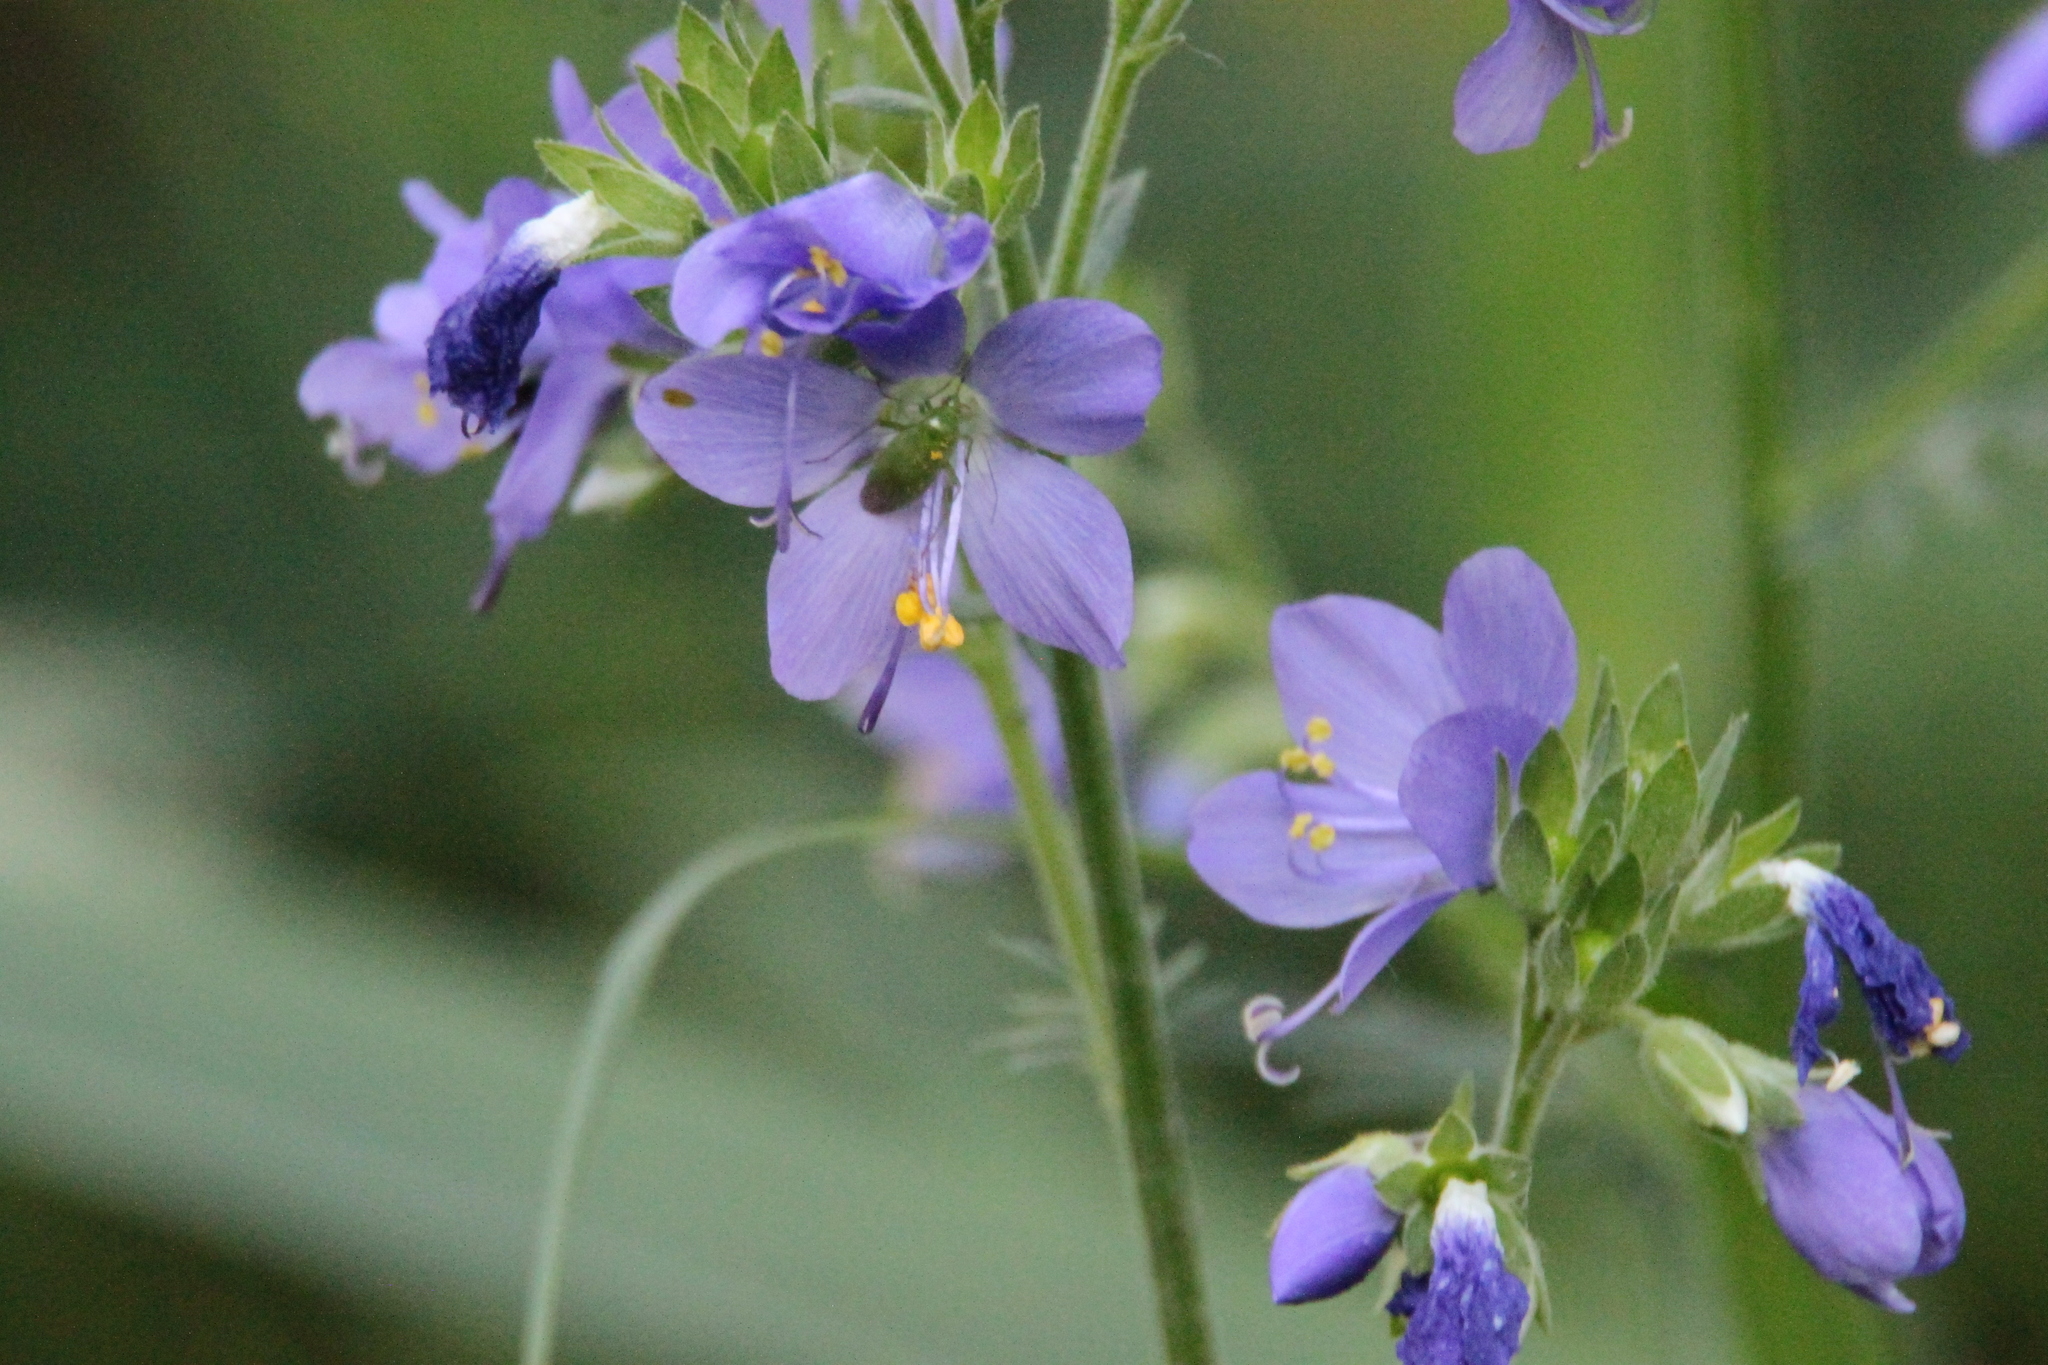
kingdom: Plantae
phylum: Tracheophyta
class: Magnoliopsida
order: Ericales
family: Polemoniaceae
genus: Polemonium
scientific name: Polemonium caeruleum
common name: Jacob's-ladder
